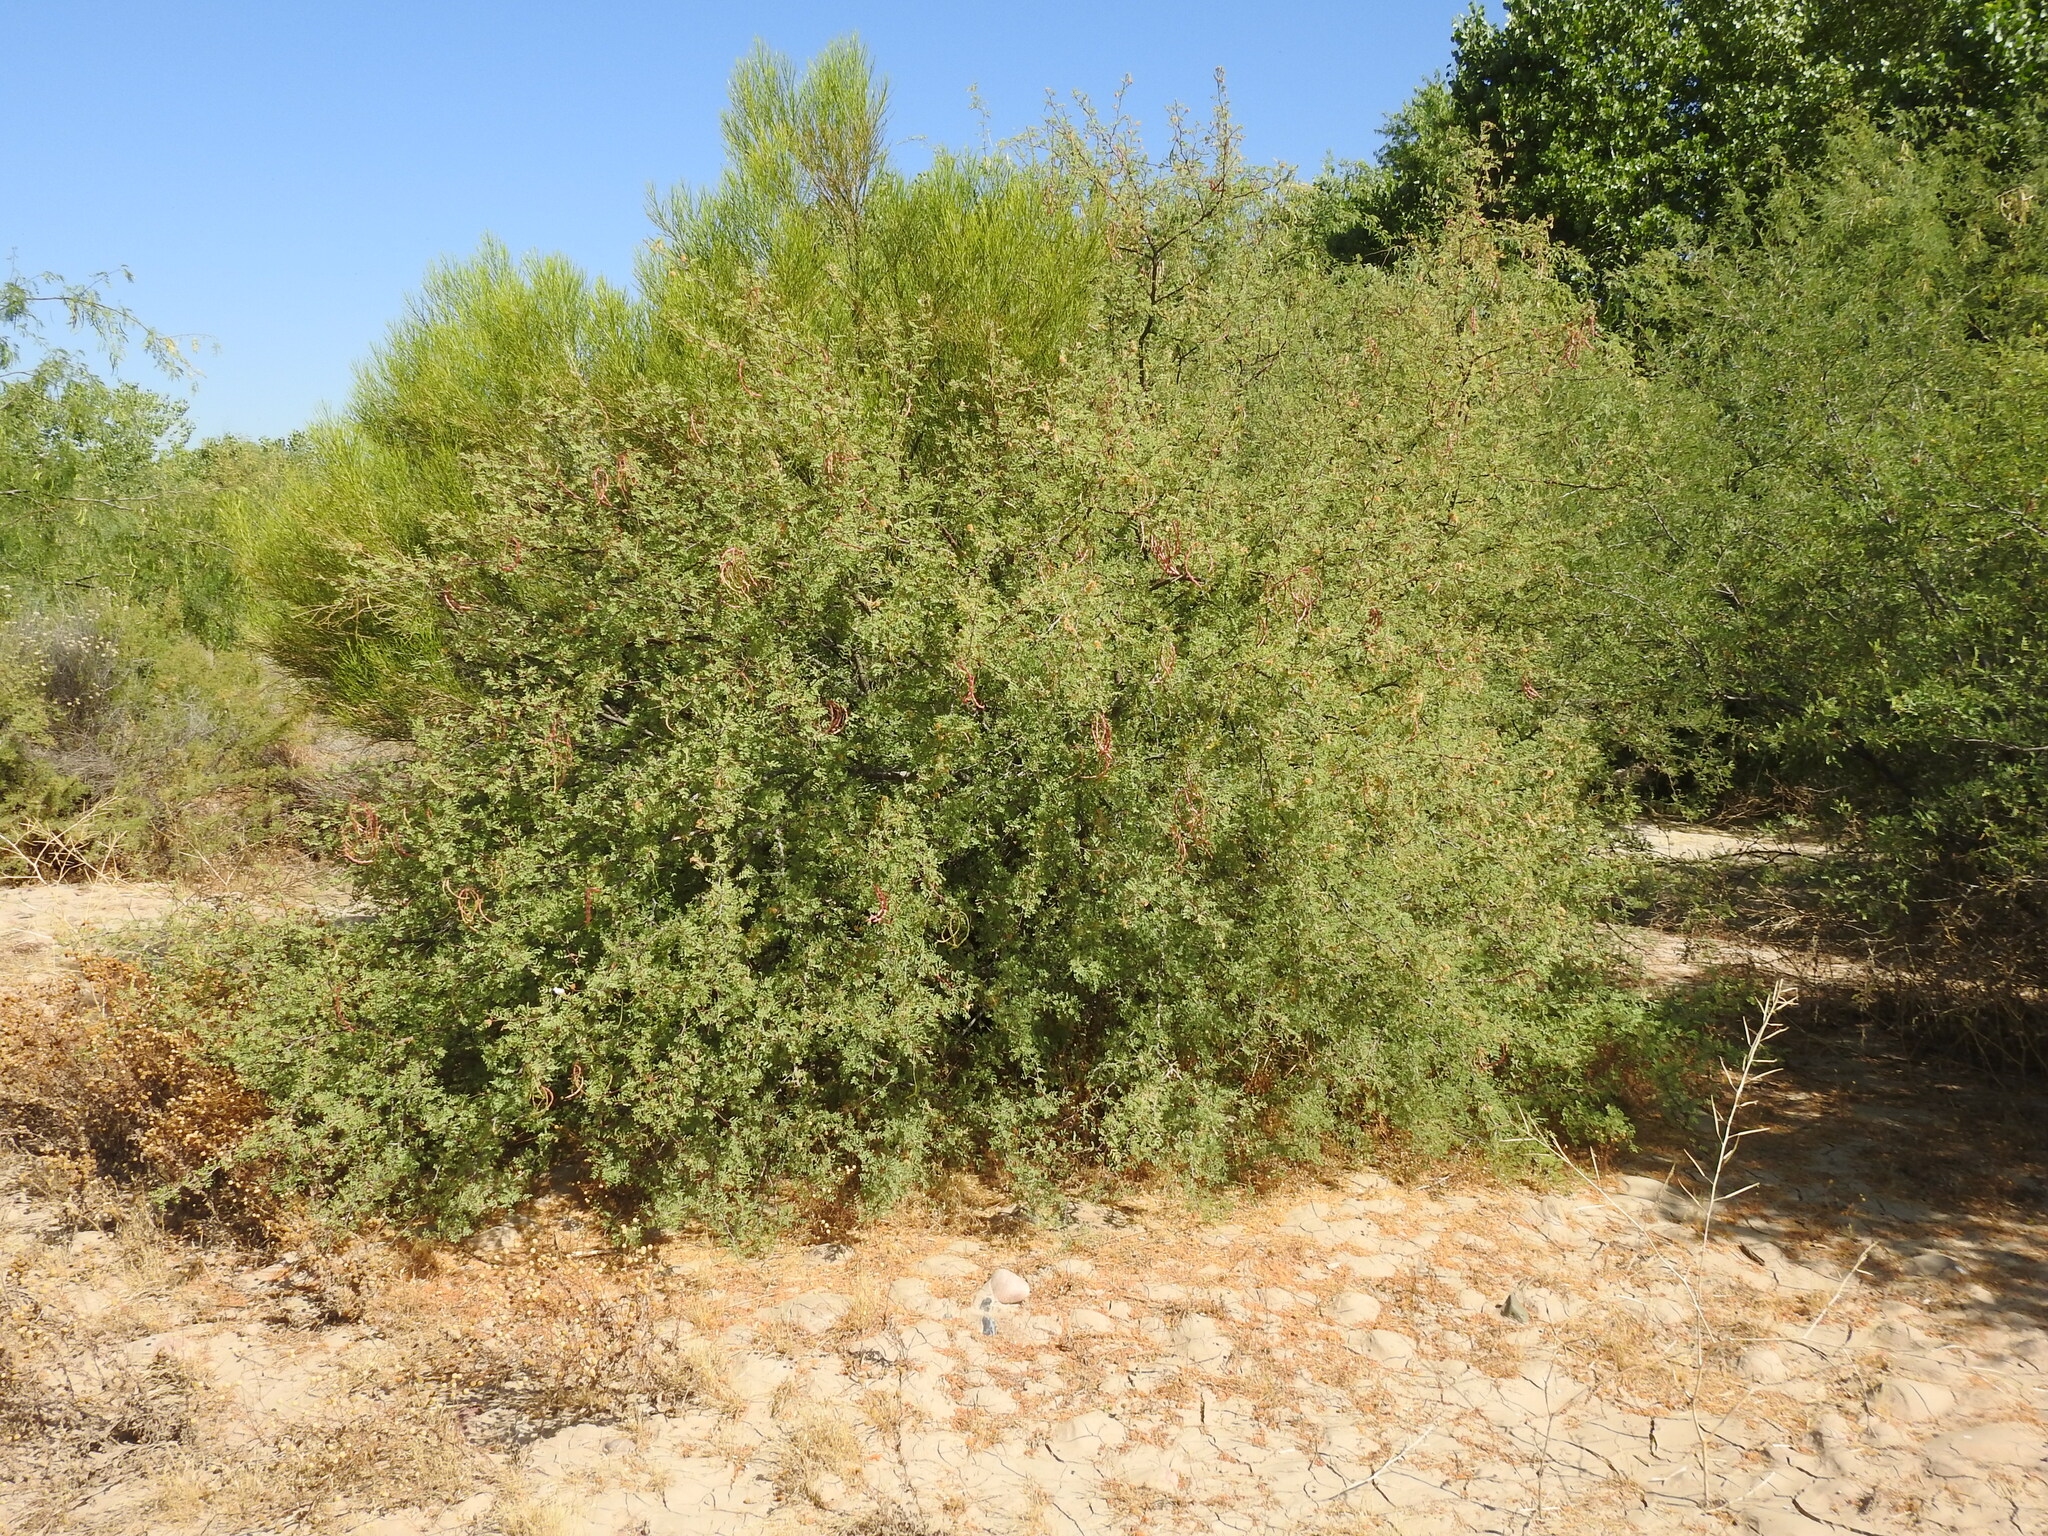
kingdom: Plantae
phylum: Tracheophyta
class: Magnoliopsida
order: Fabales
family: Fabaceae
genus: Vachellia
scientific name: Vachellia constricta
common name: Mescat acacia
